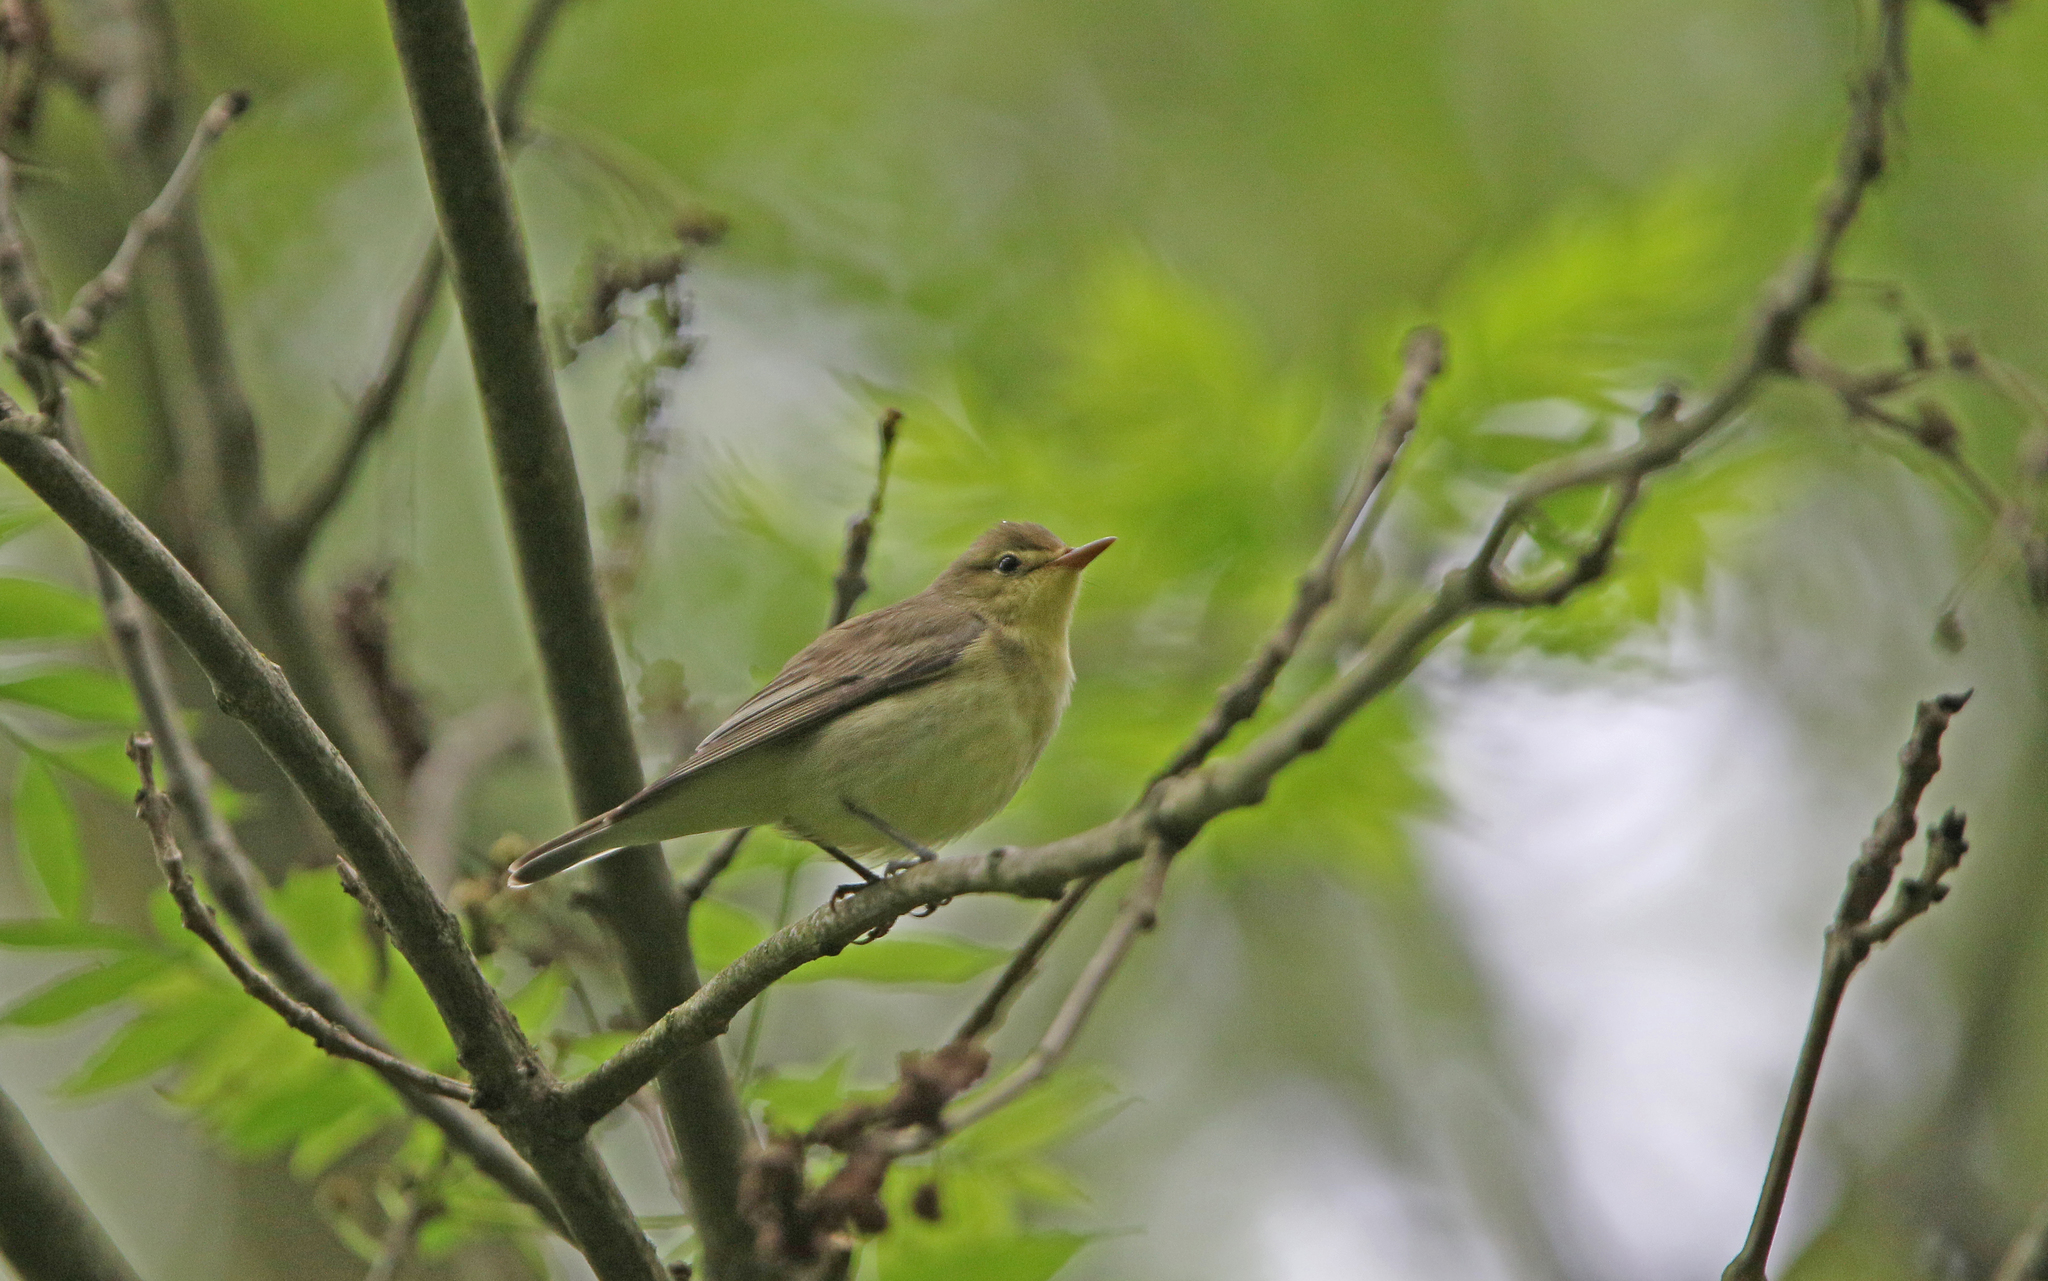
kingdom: Animalia
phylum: Chordata
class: Aves
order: Passeriformes
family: Acrocephalidae
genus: Hippolais
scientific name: Hippolais icterina
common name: Icterine warbler
